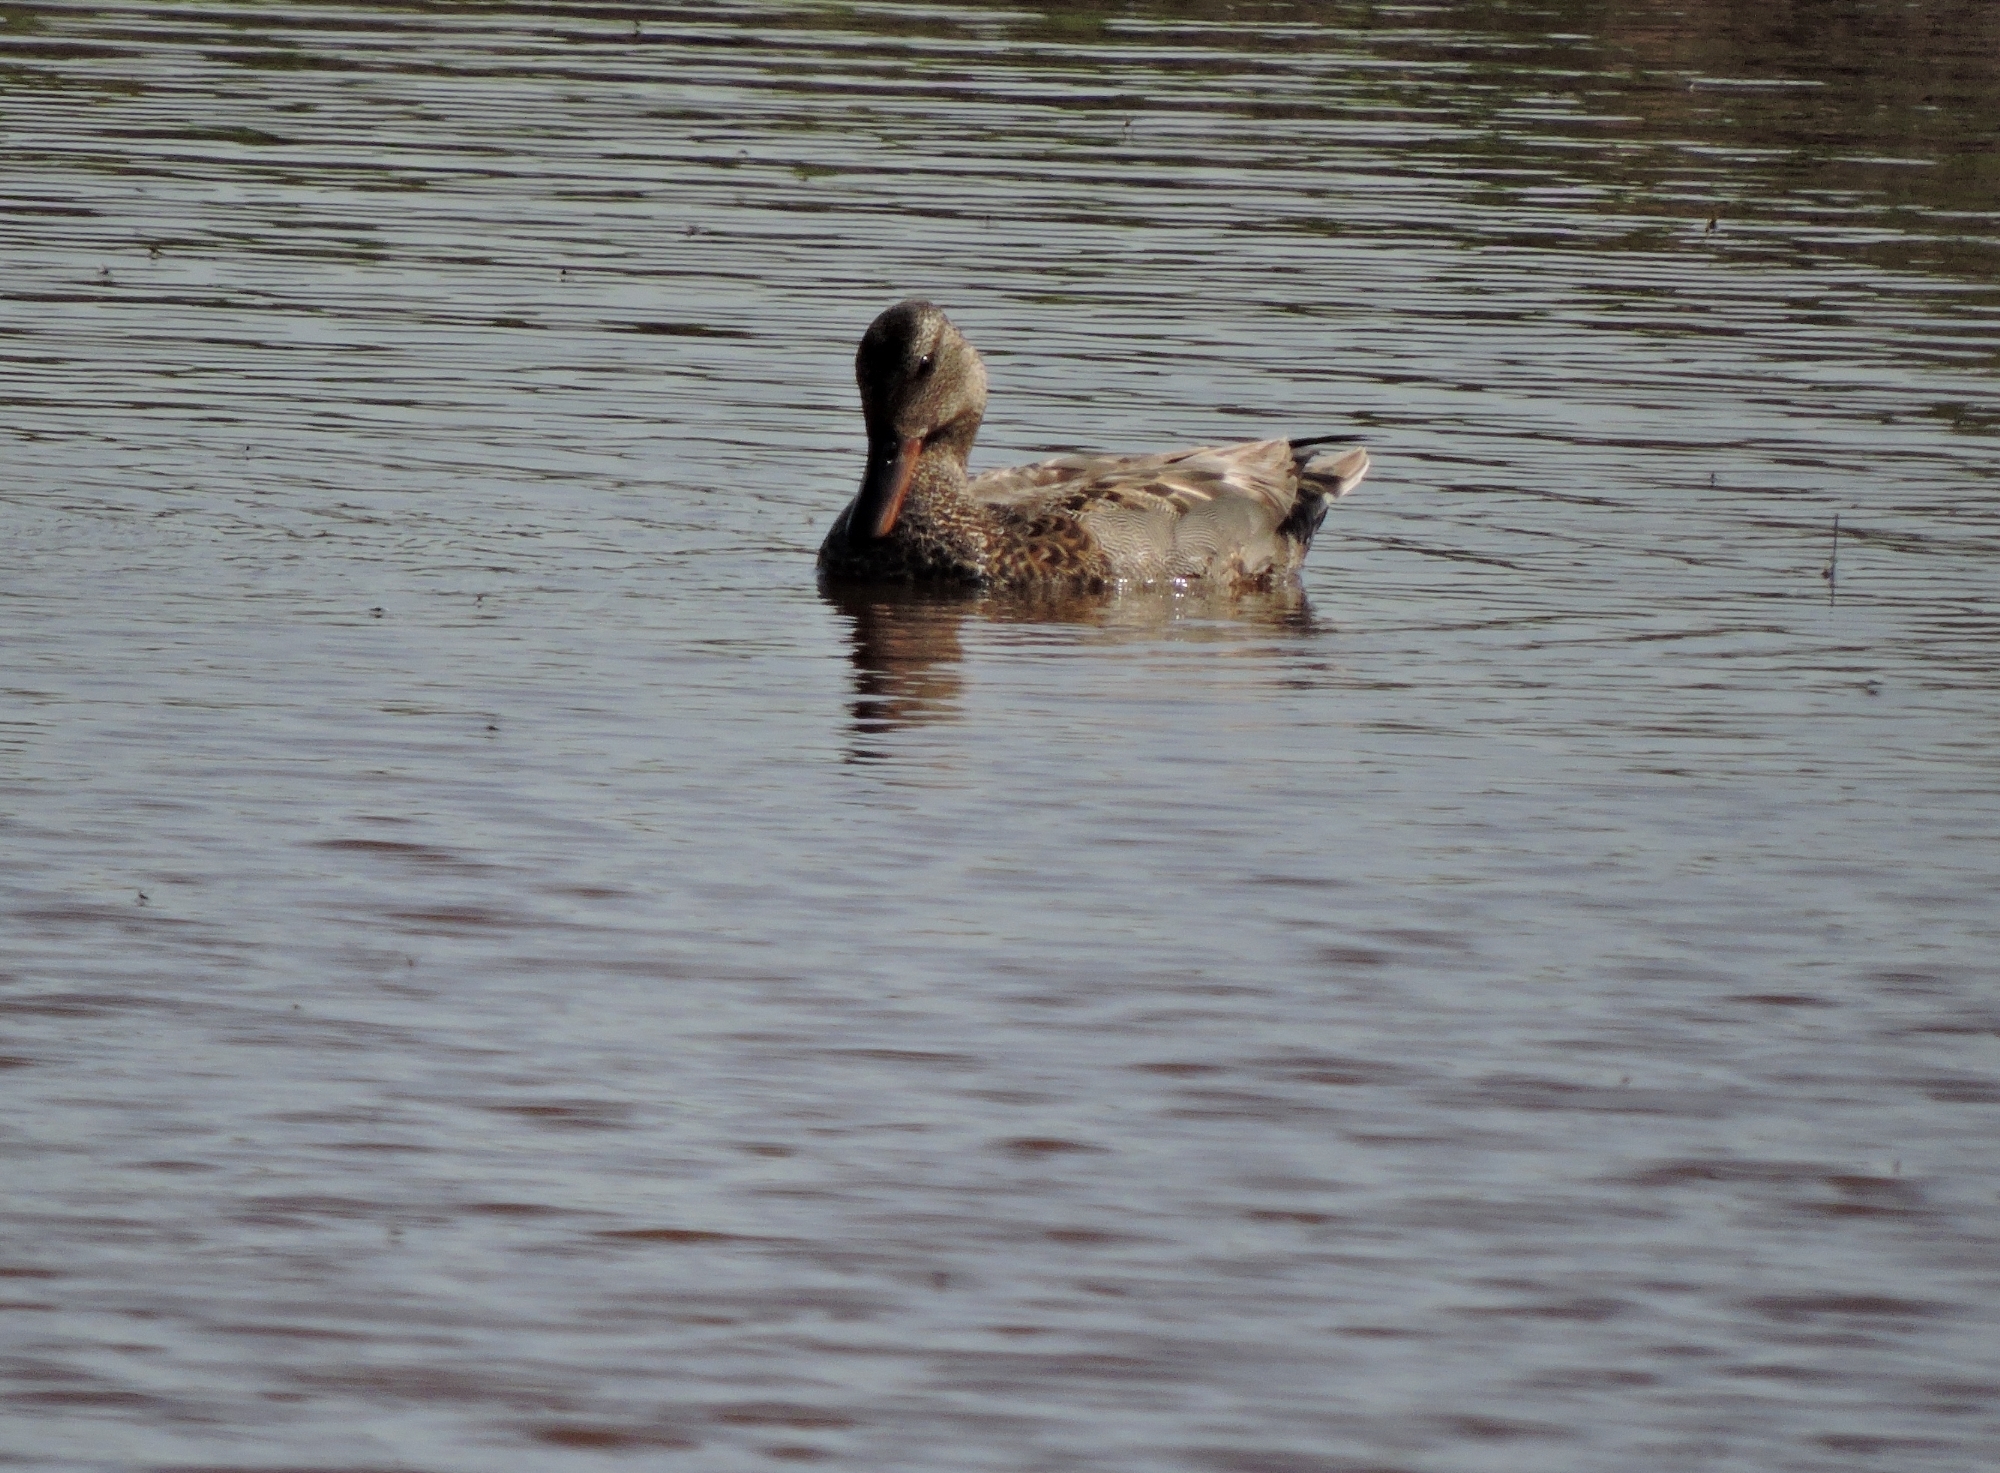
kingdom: Animalia
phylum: Chordata
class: Aves
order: Anseriformes
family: Anatidae
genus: Mareca
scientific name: Mareca strepera
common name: Gadwall
